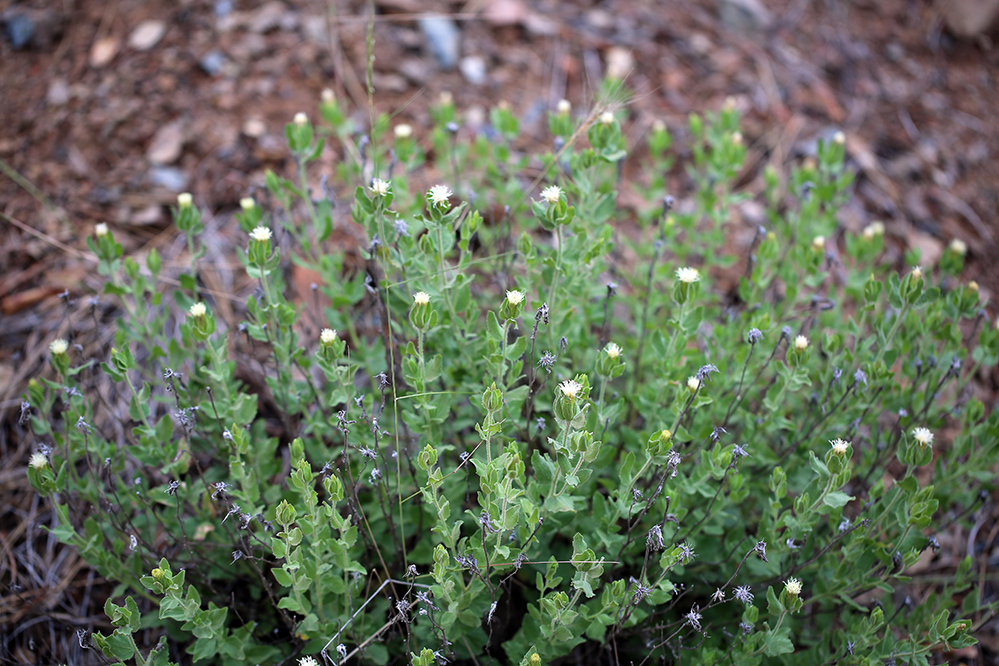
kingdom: Plantae
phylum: Tracheophyta
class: Magnoliopsida
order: Asterales
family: Asteraceae
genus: Brickellia
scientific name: Brickellia greenei
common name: Greene's brickellbush
